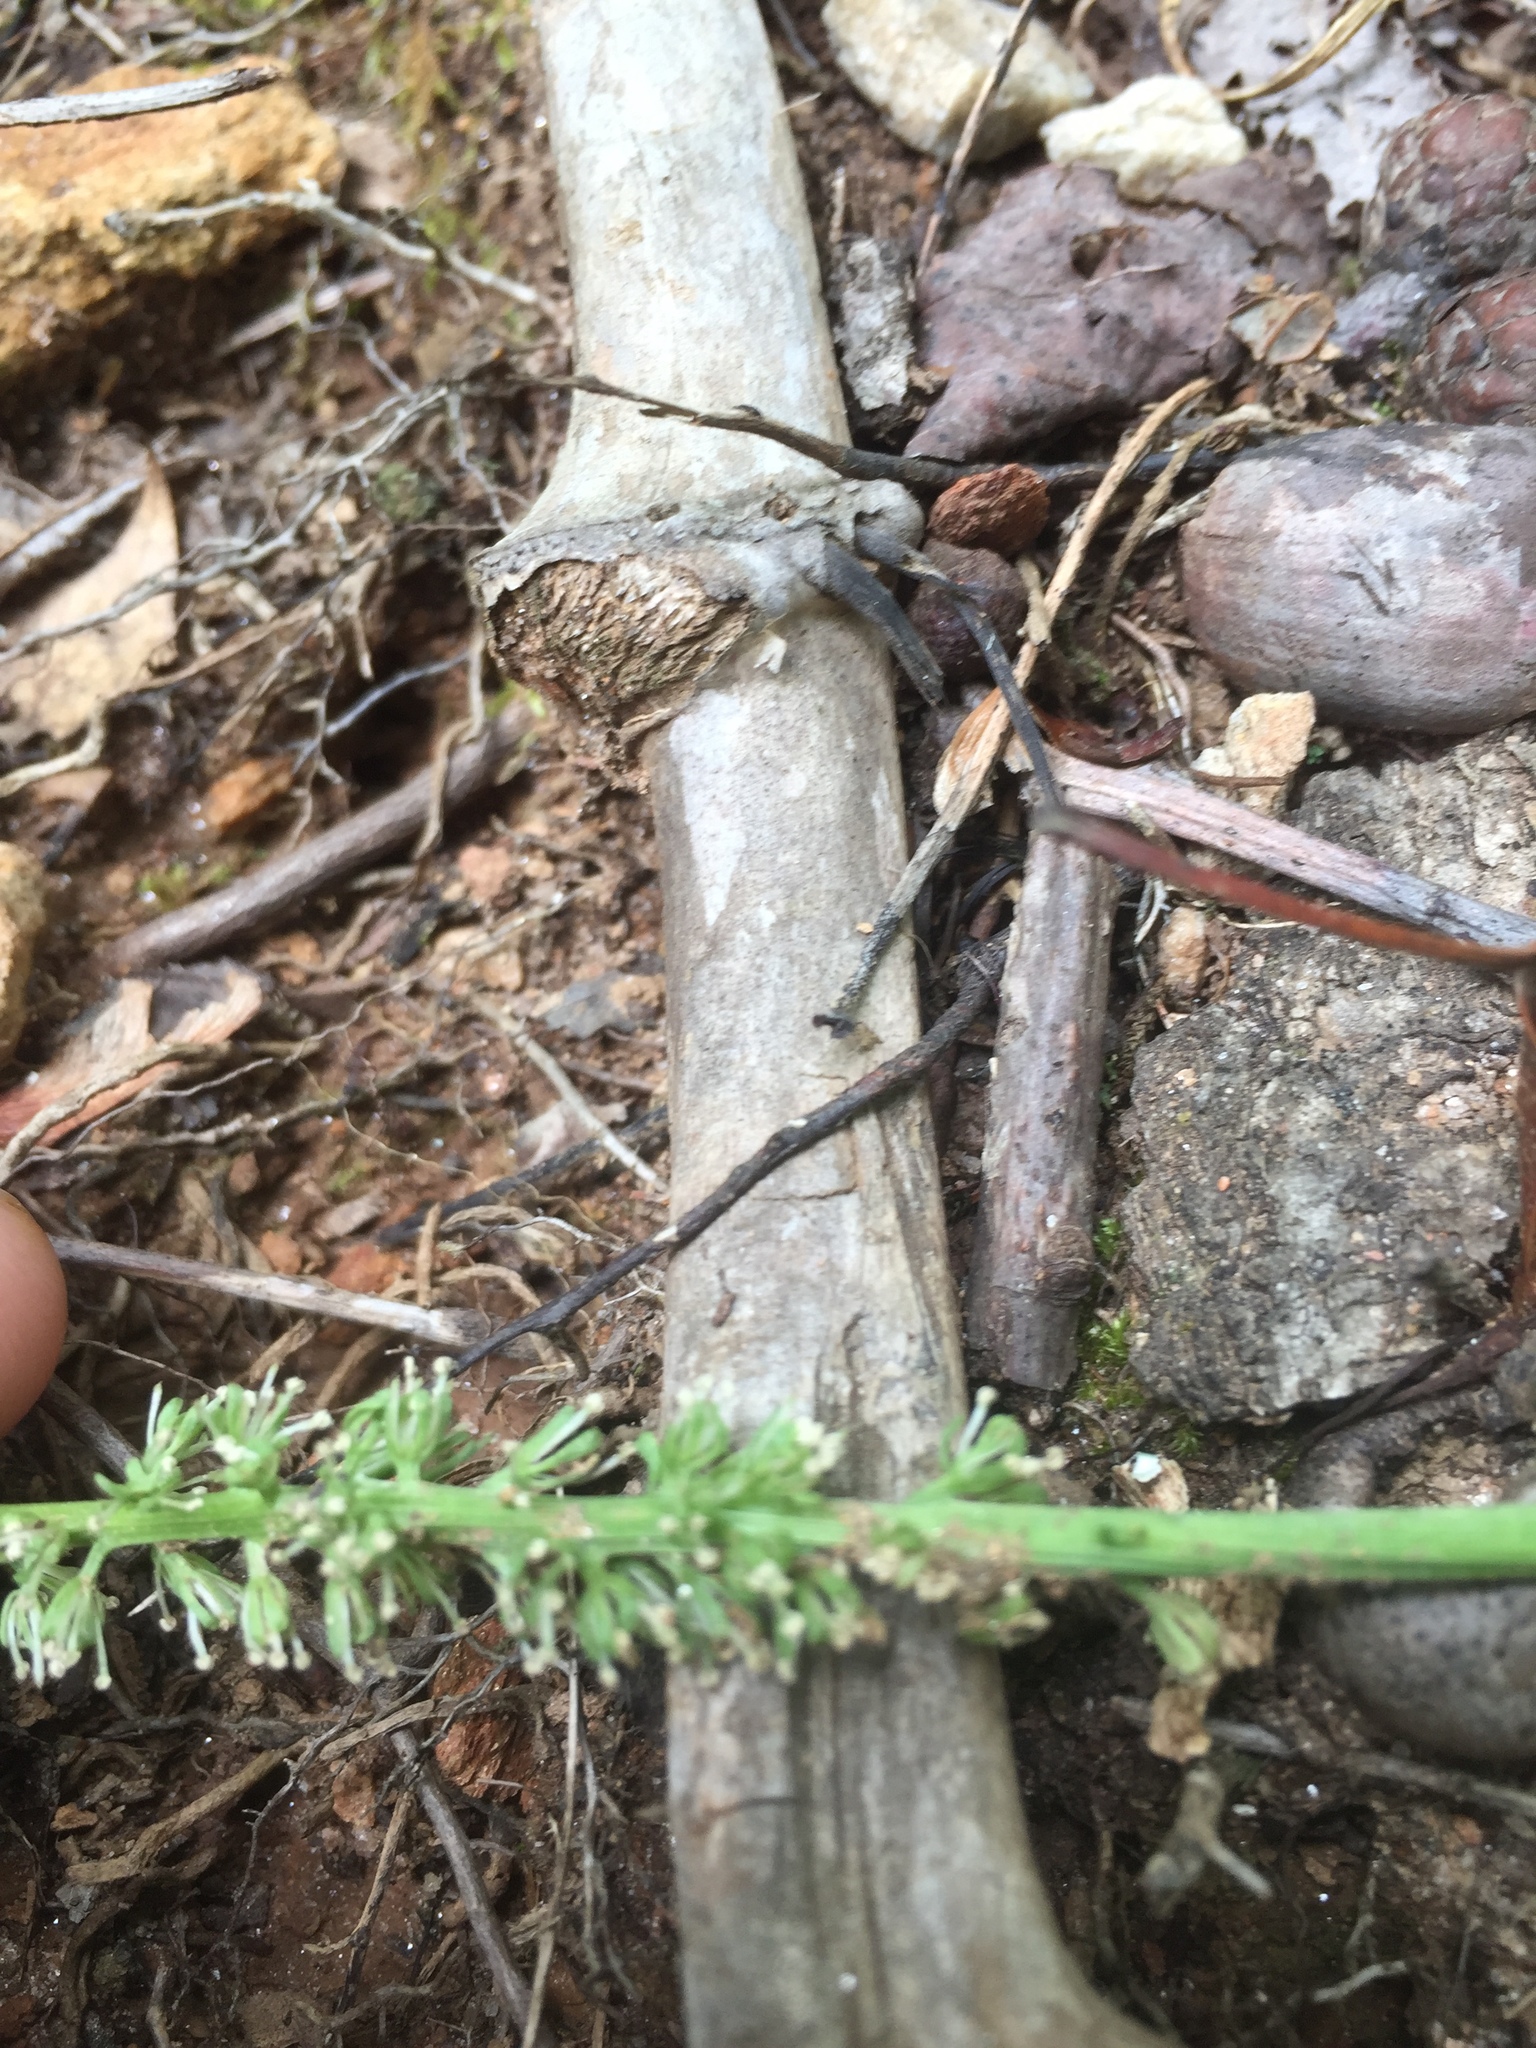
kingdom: Plantae
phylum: Tracheophyta
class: Liliopsida
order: Liliales
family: Melanthiaceae
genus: Chamaelirium
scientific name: Chamaelirium luteum
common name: Fairy-wand
